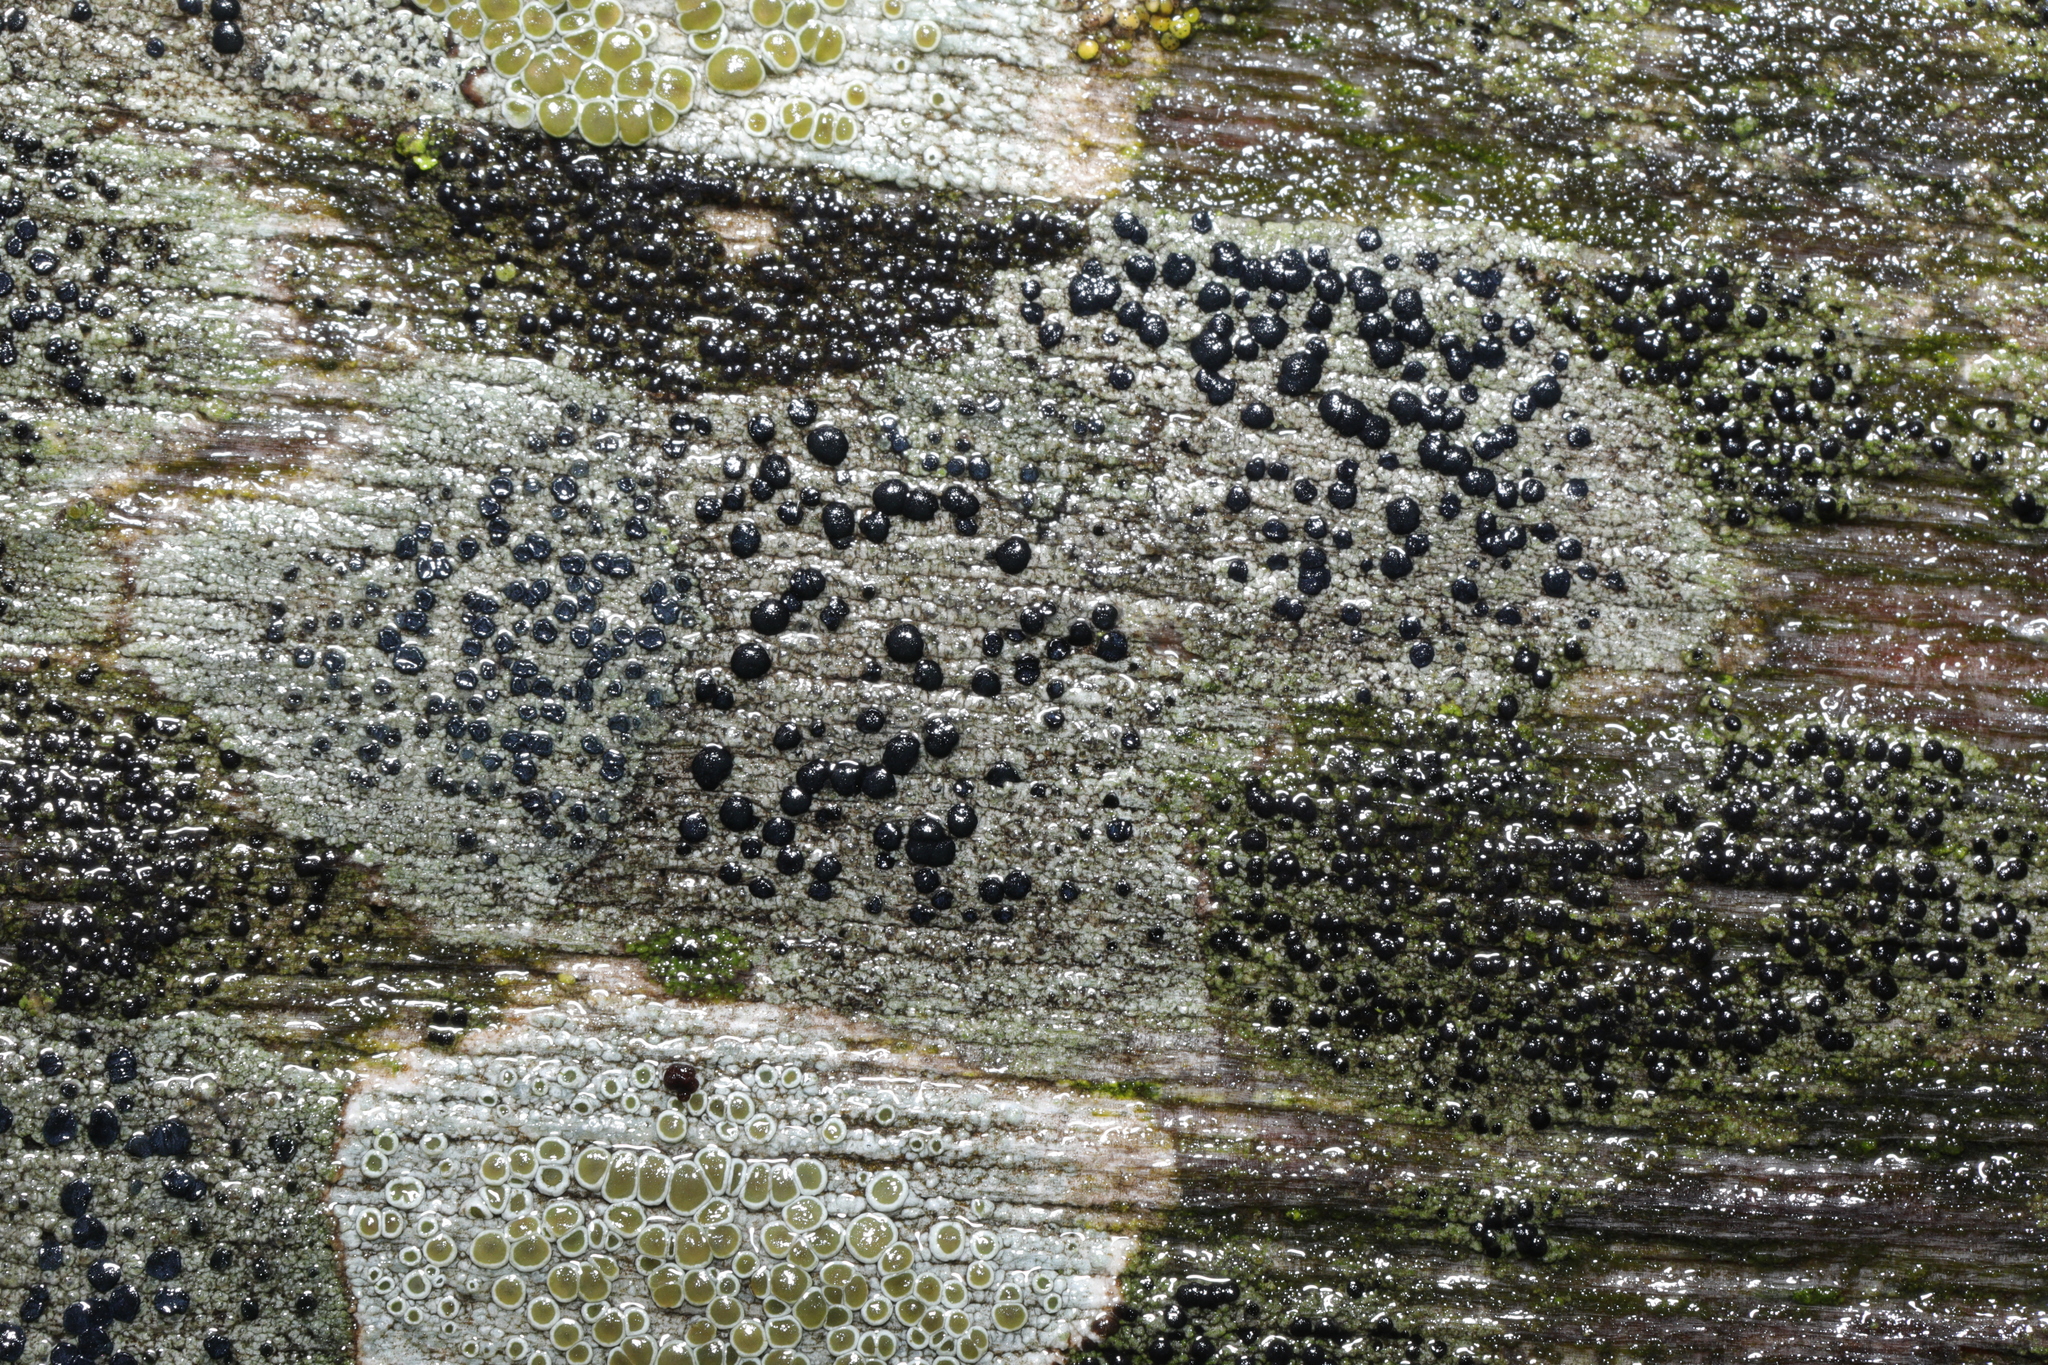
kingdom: Fungi
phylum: Ascomycota
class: Lecanoromycetes
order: Lecanorales
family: Lecanoraceae
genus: Lecidella
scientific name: Lecidella elaeochroma
